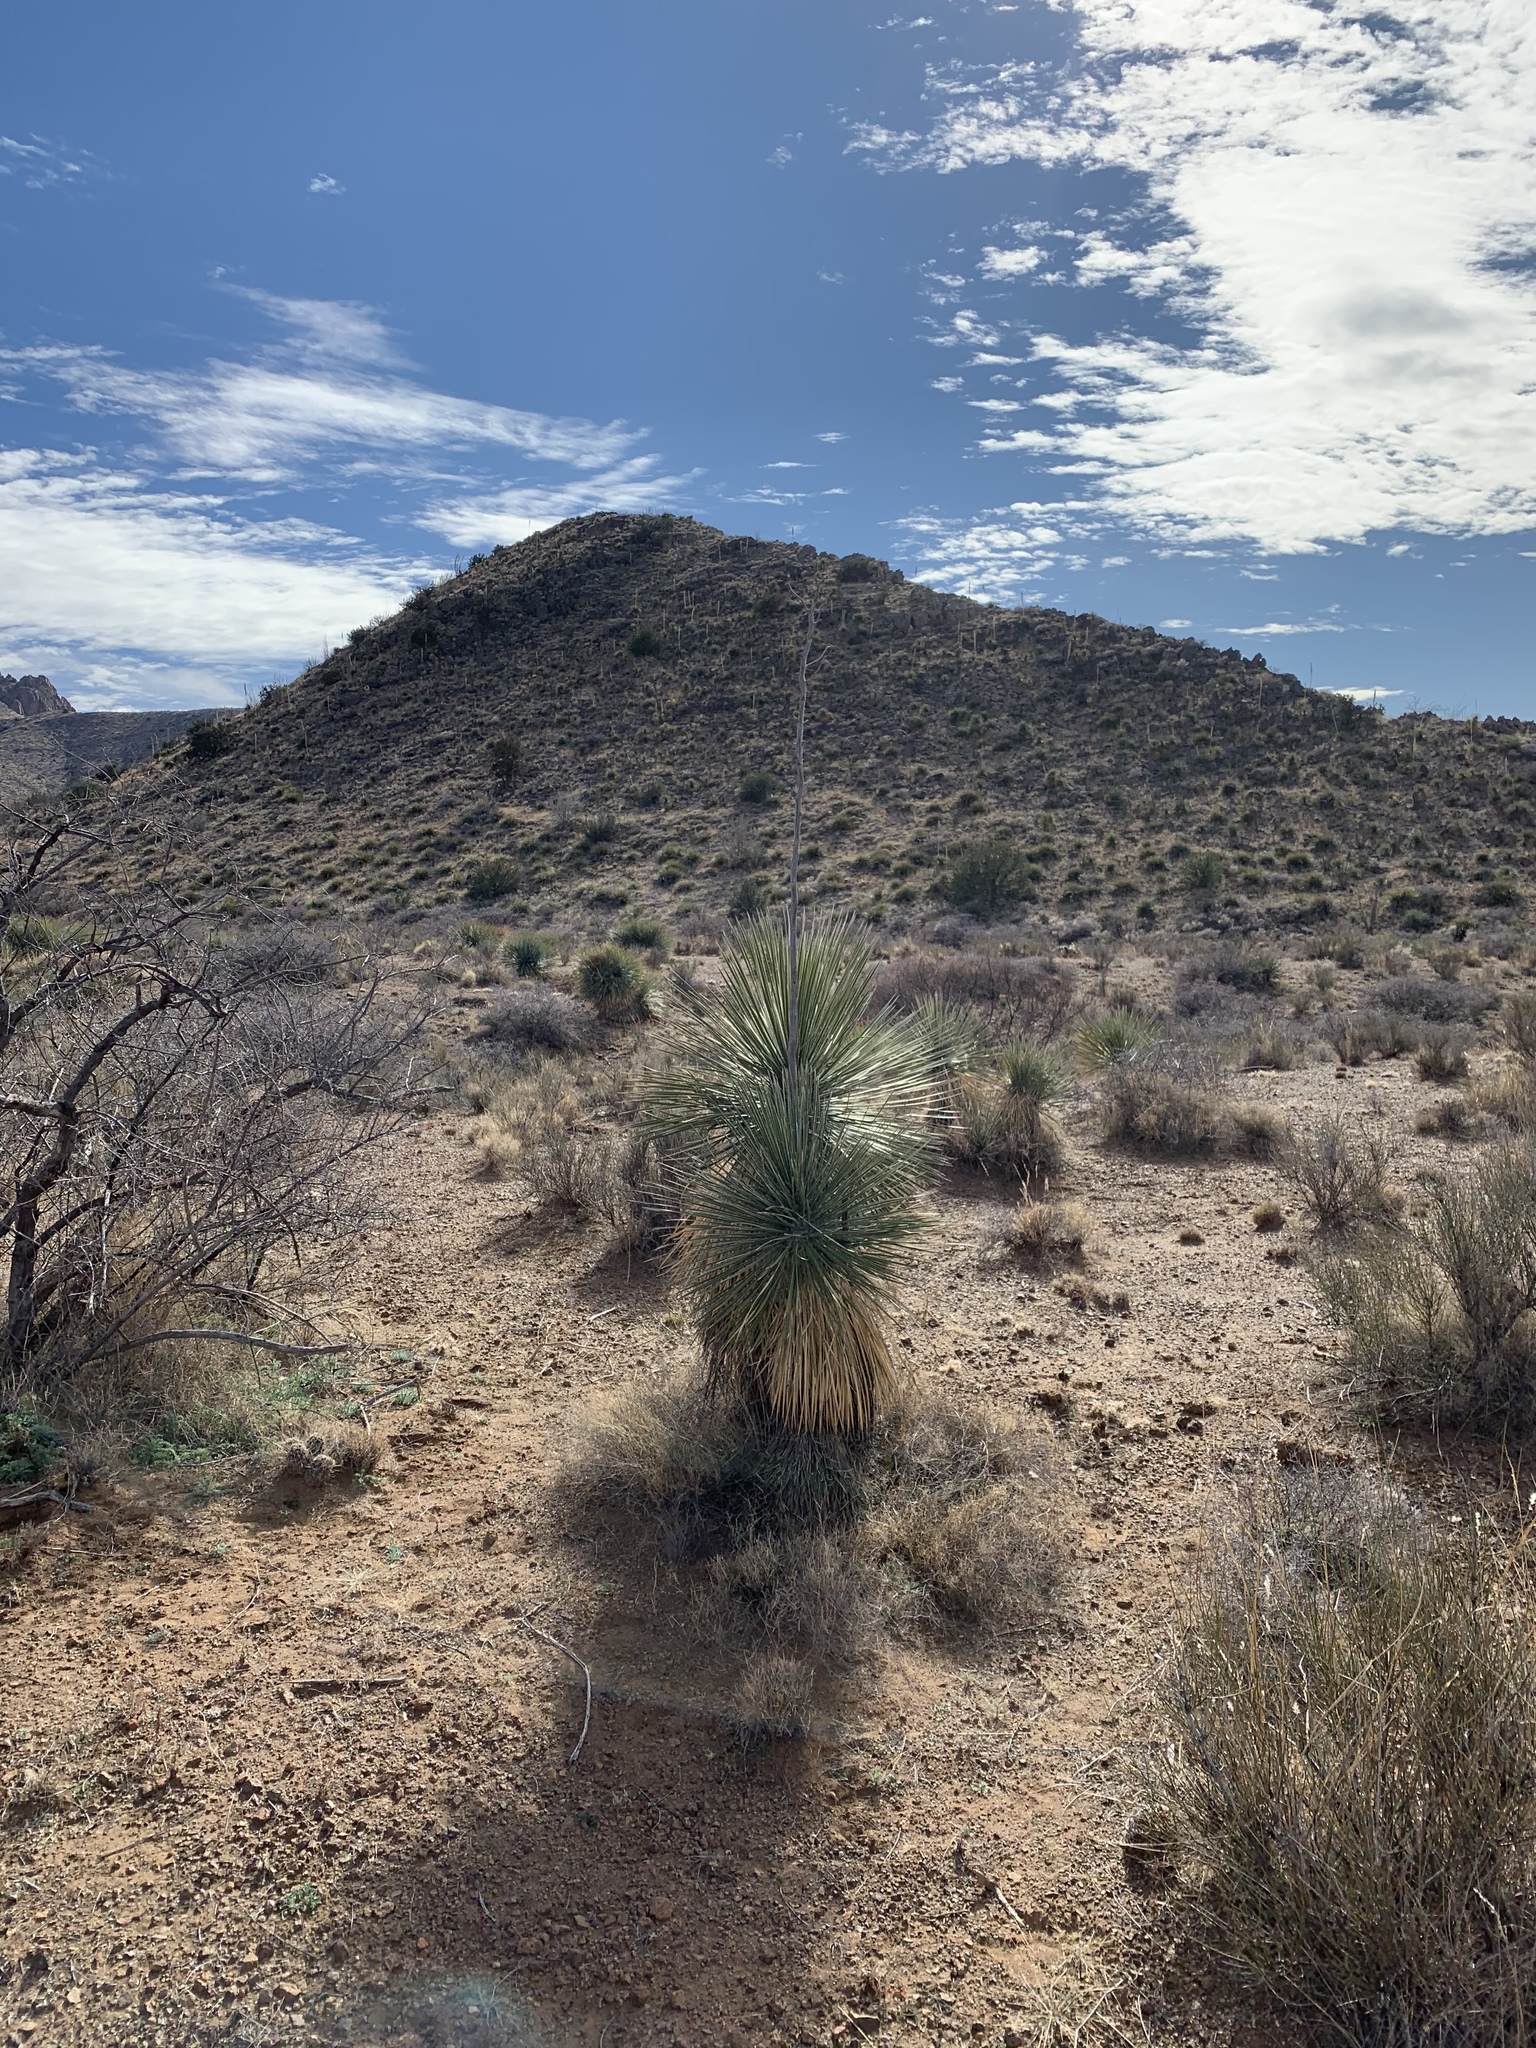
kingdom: Plantae
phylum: Tracheophyta
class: Liliopsida
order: Asparagales
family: Asparagaceae
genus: Yucca
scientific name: Yucca elata
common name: Palmella
